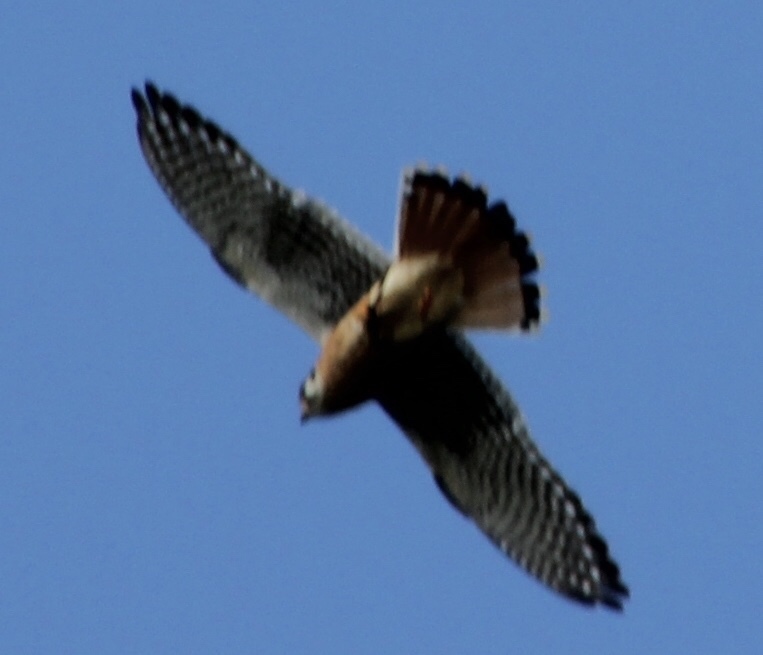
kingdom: Animalia
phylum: Chordata
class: Aves
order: Falconiformes
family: Falconidae
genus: Falco
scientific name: Falco sparverius
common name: American kestrel
